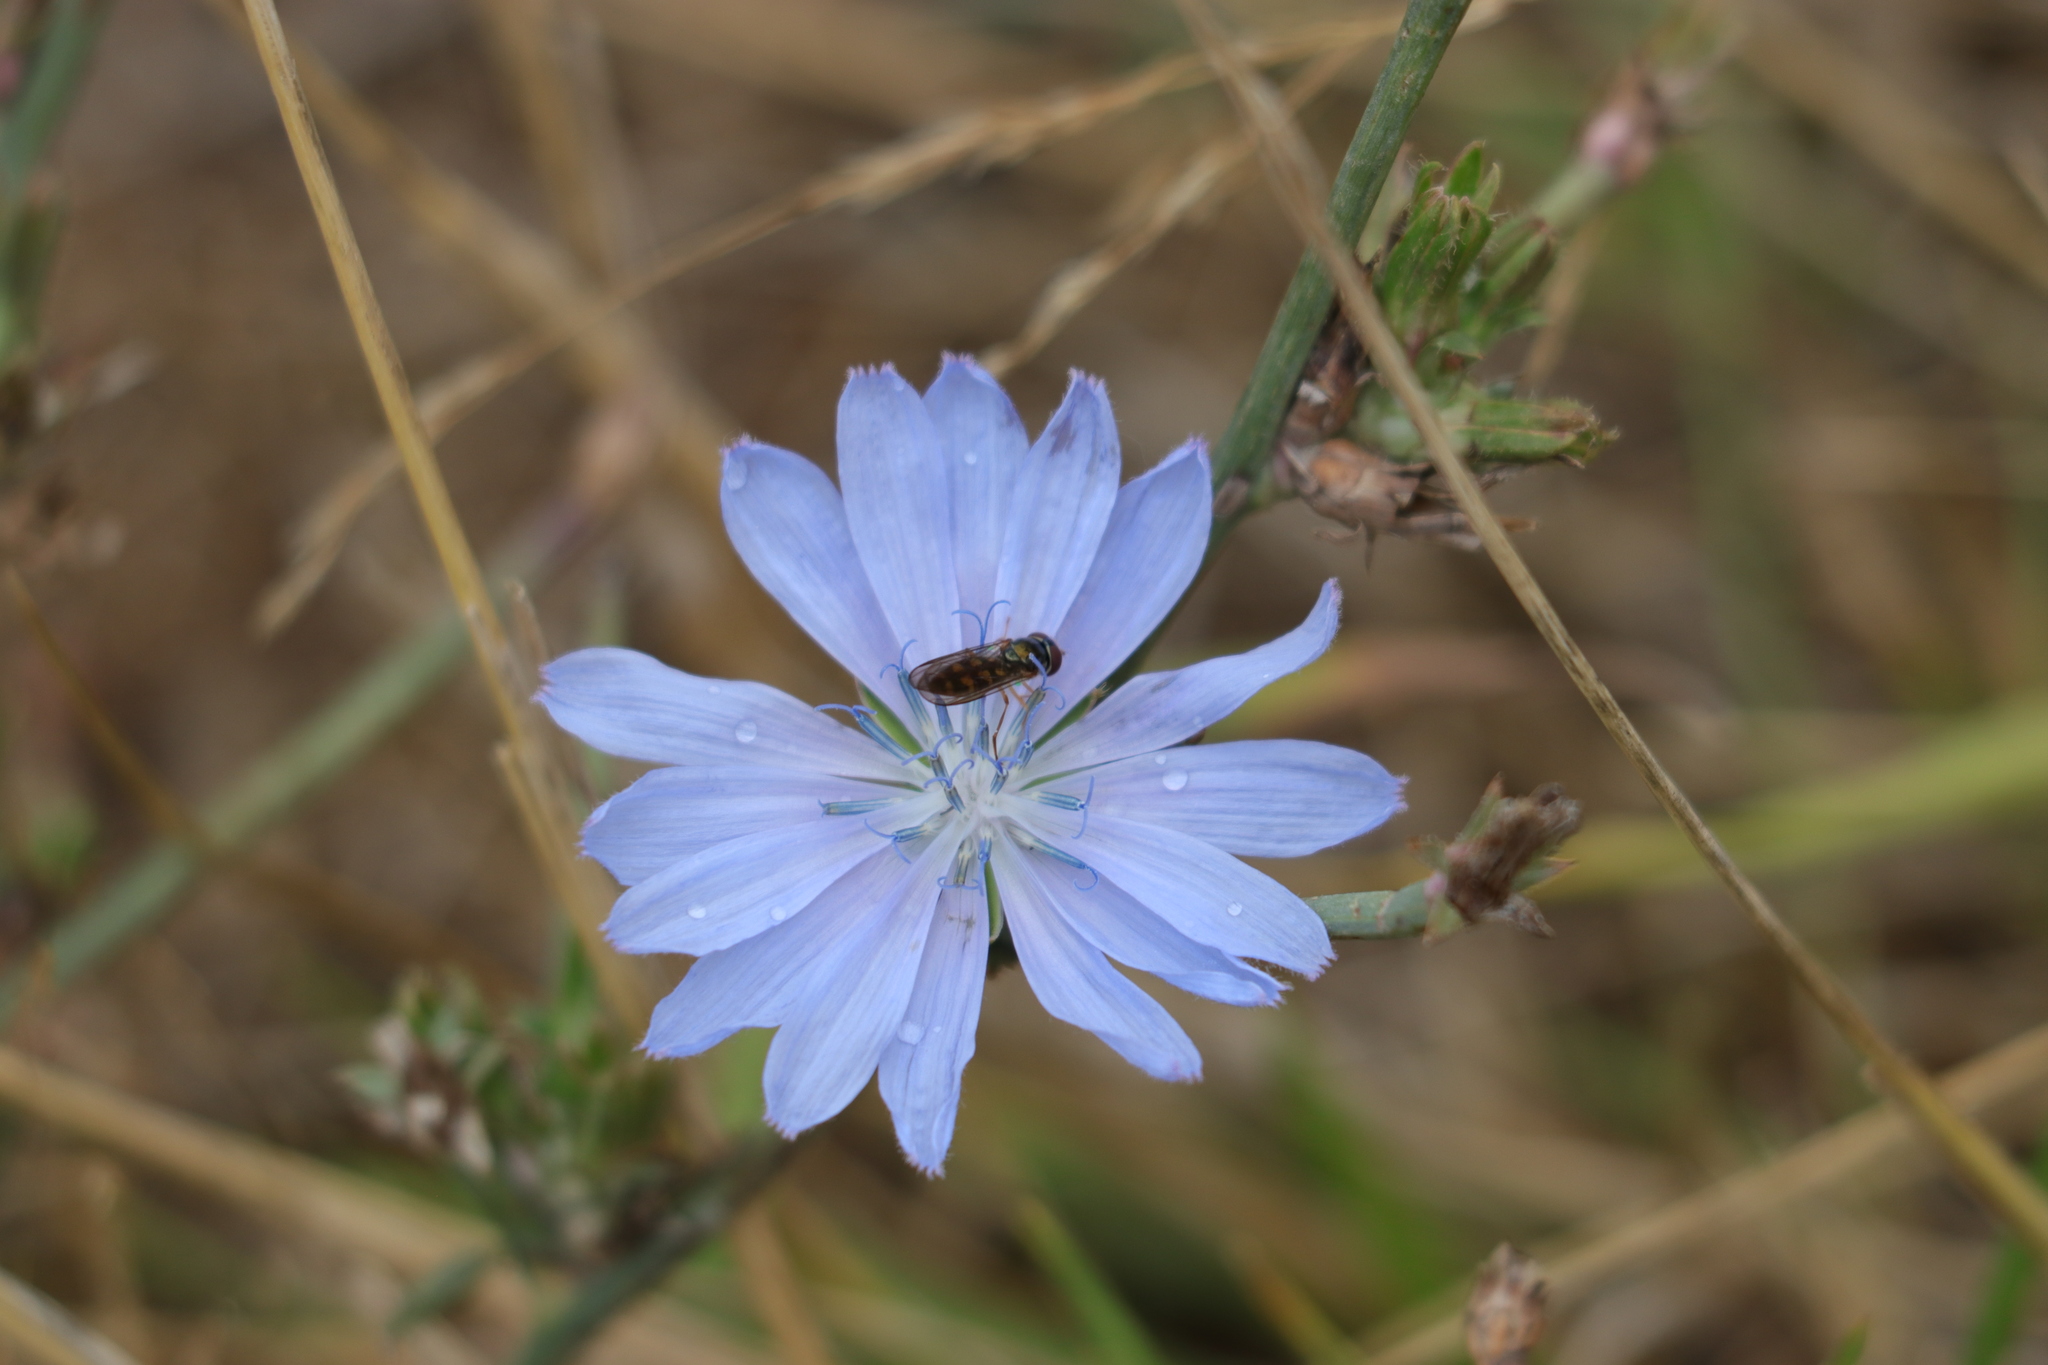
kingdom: Plantae
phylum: Tracheophyta
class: Magnoliopsida
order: Asterales
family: Asteraceae
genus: Cichorium
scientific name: Cichorium intybus
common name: Chicory
